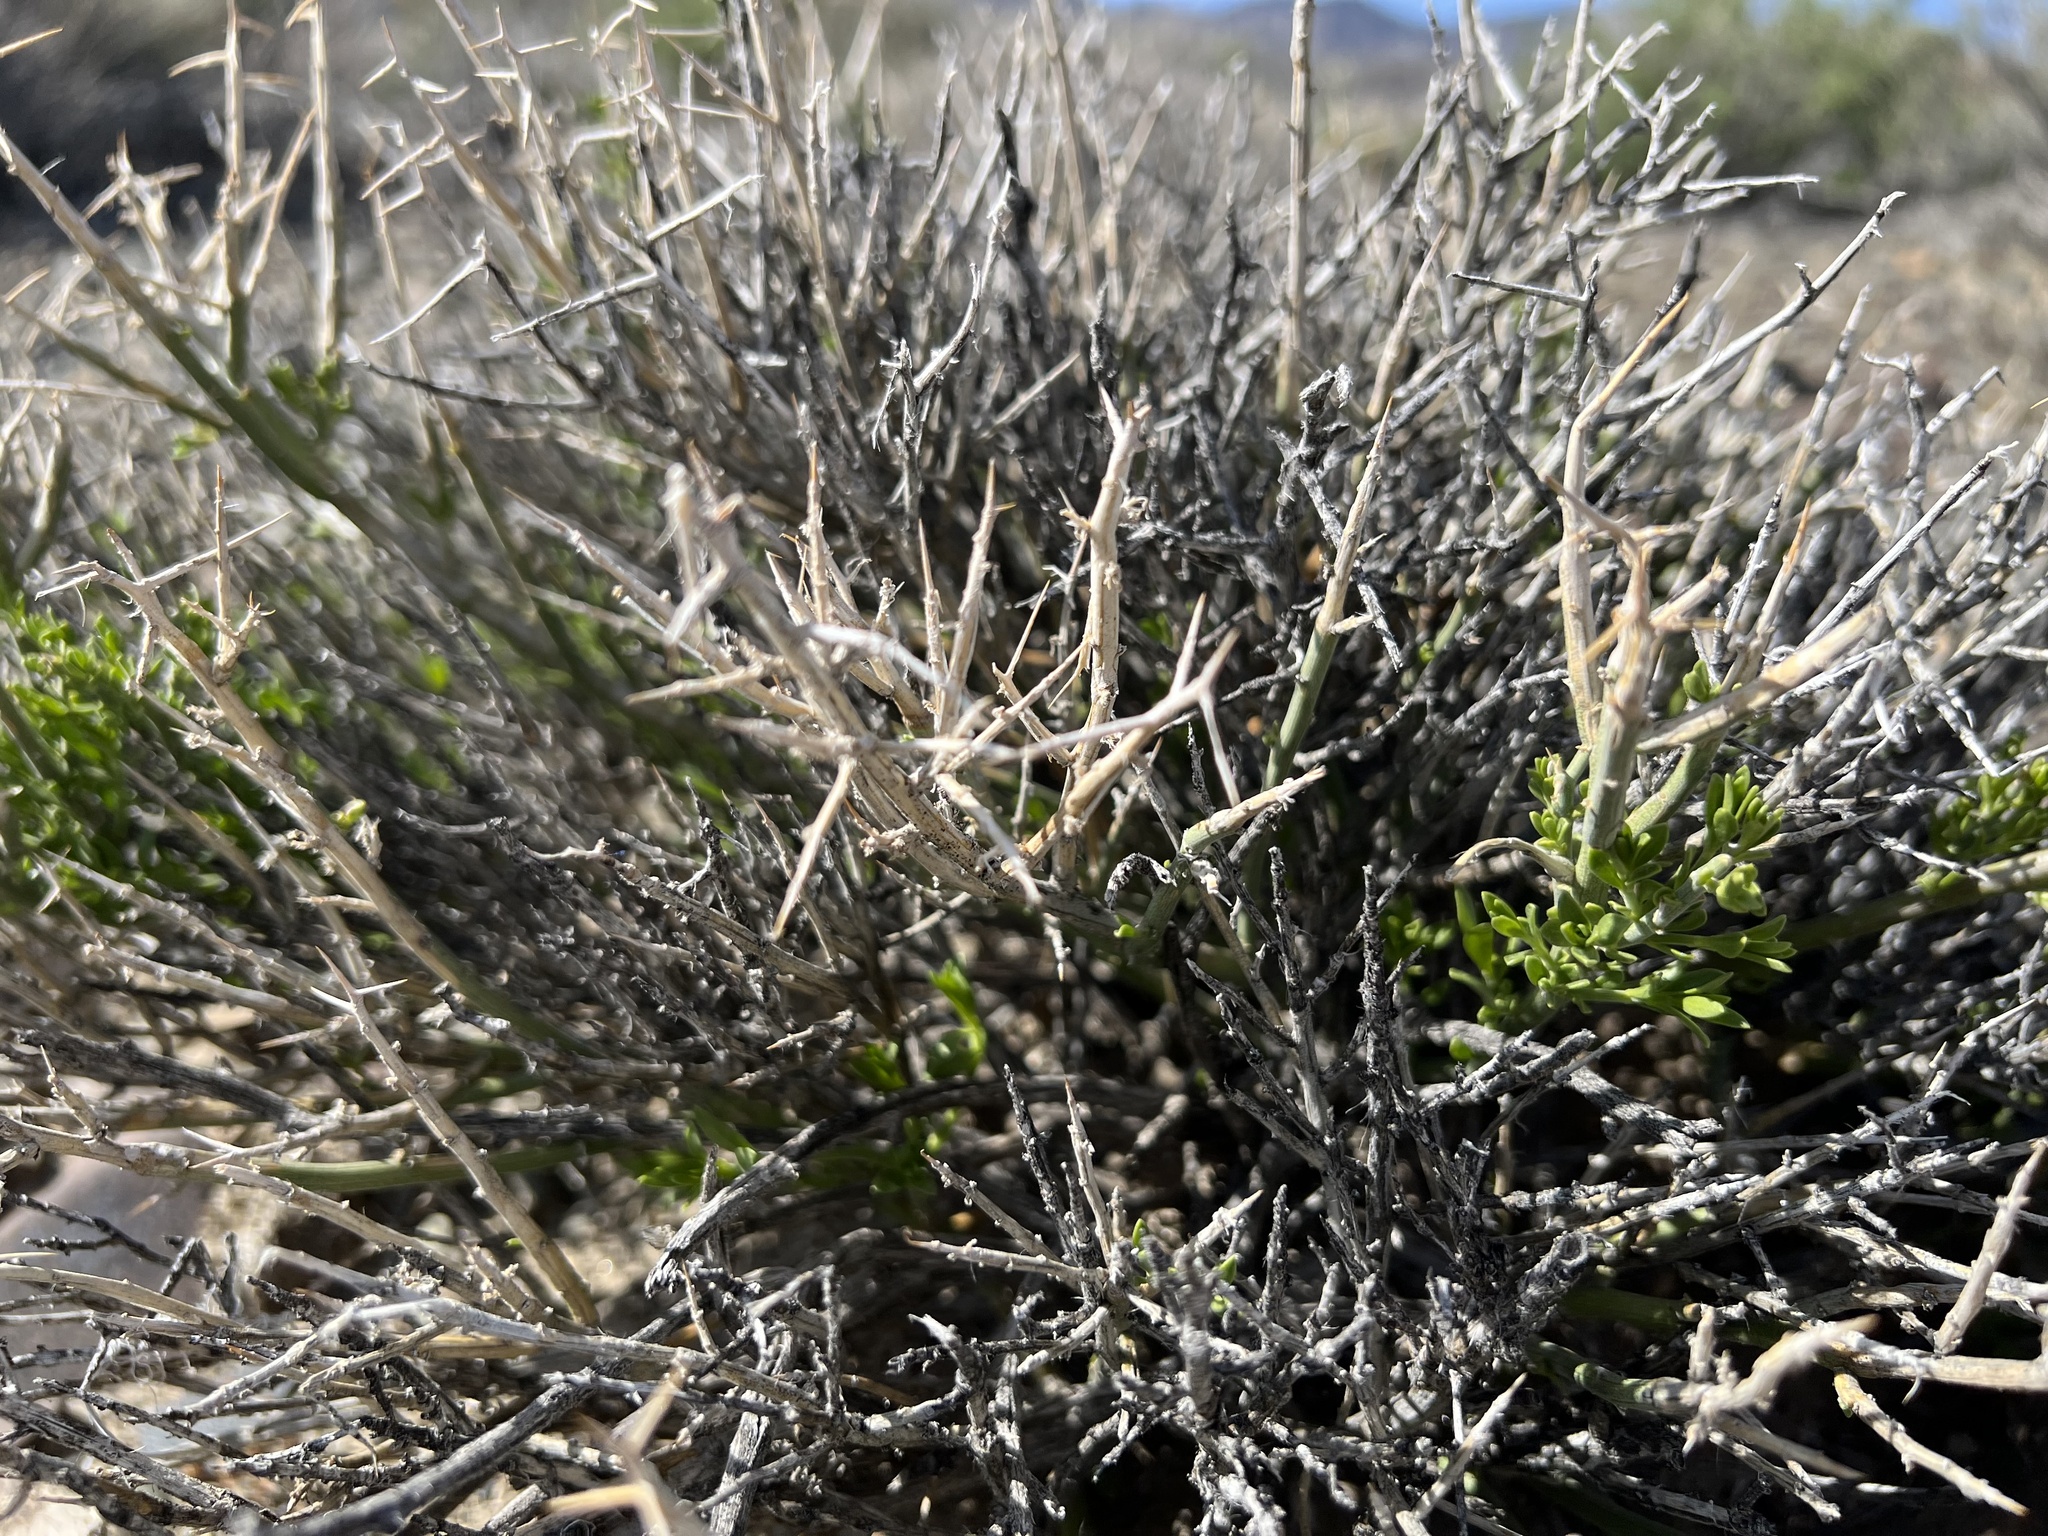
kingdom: Plantae
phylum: Tracheophyta
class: Magnoliopsida
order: Lamiales
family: Oleaceae
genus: Menodora
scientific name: Menodora spinescens
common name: Spiny menodora
